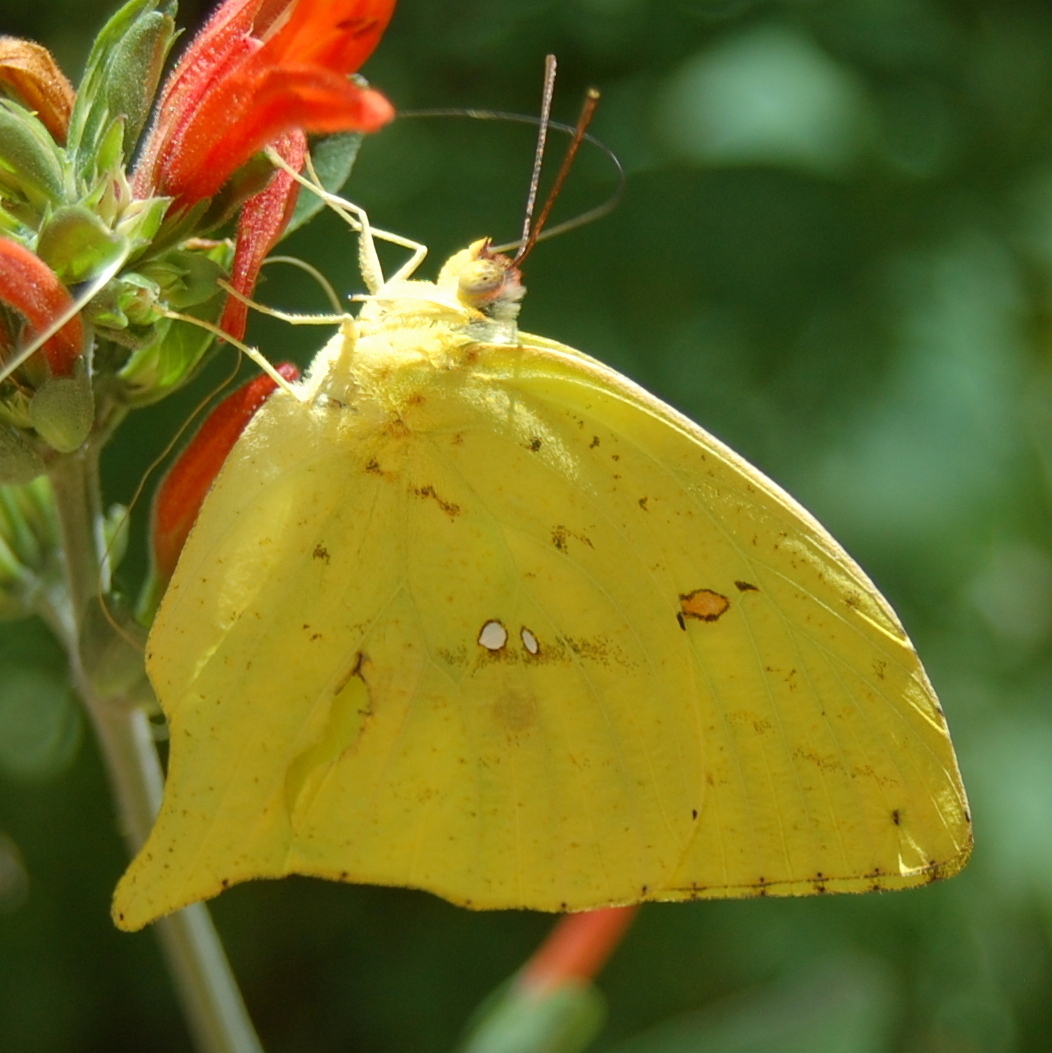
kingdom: Animalia
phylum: Arthropoda
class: Insecta
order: Lepidoptera
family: Pieridae
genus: Phoebis
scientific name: Phoebis neocypris
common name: Tailed sulphur
